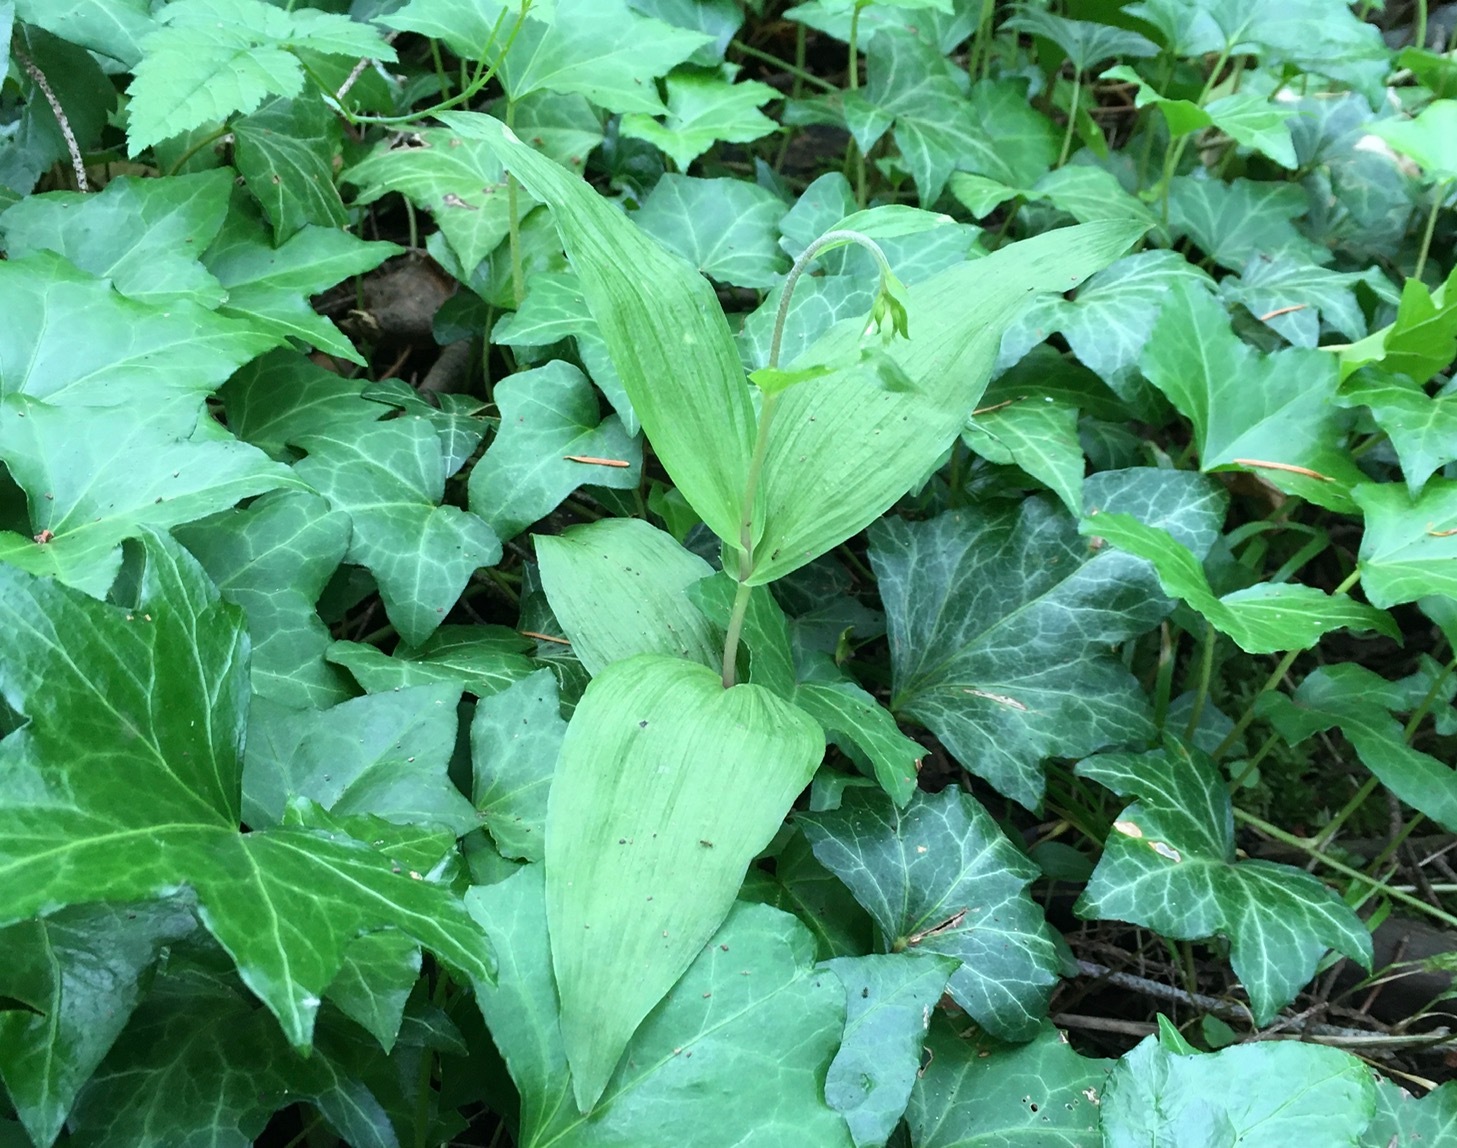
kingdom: Plantae
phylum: Tracheophyta
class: Liliopsida
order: Asparagales
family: Orchidaceae
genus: Epipactis
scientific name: Epipactis helleborine
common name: Broad-leaved helleborine
